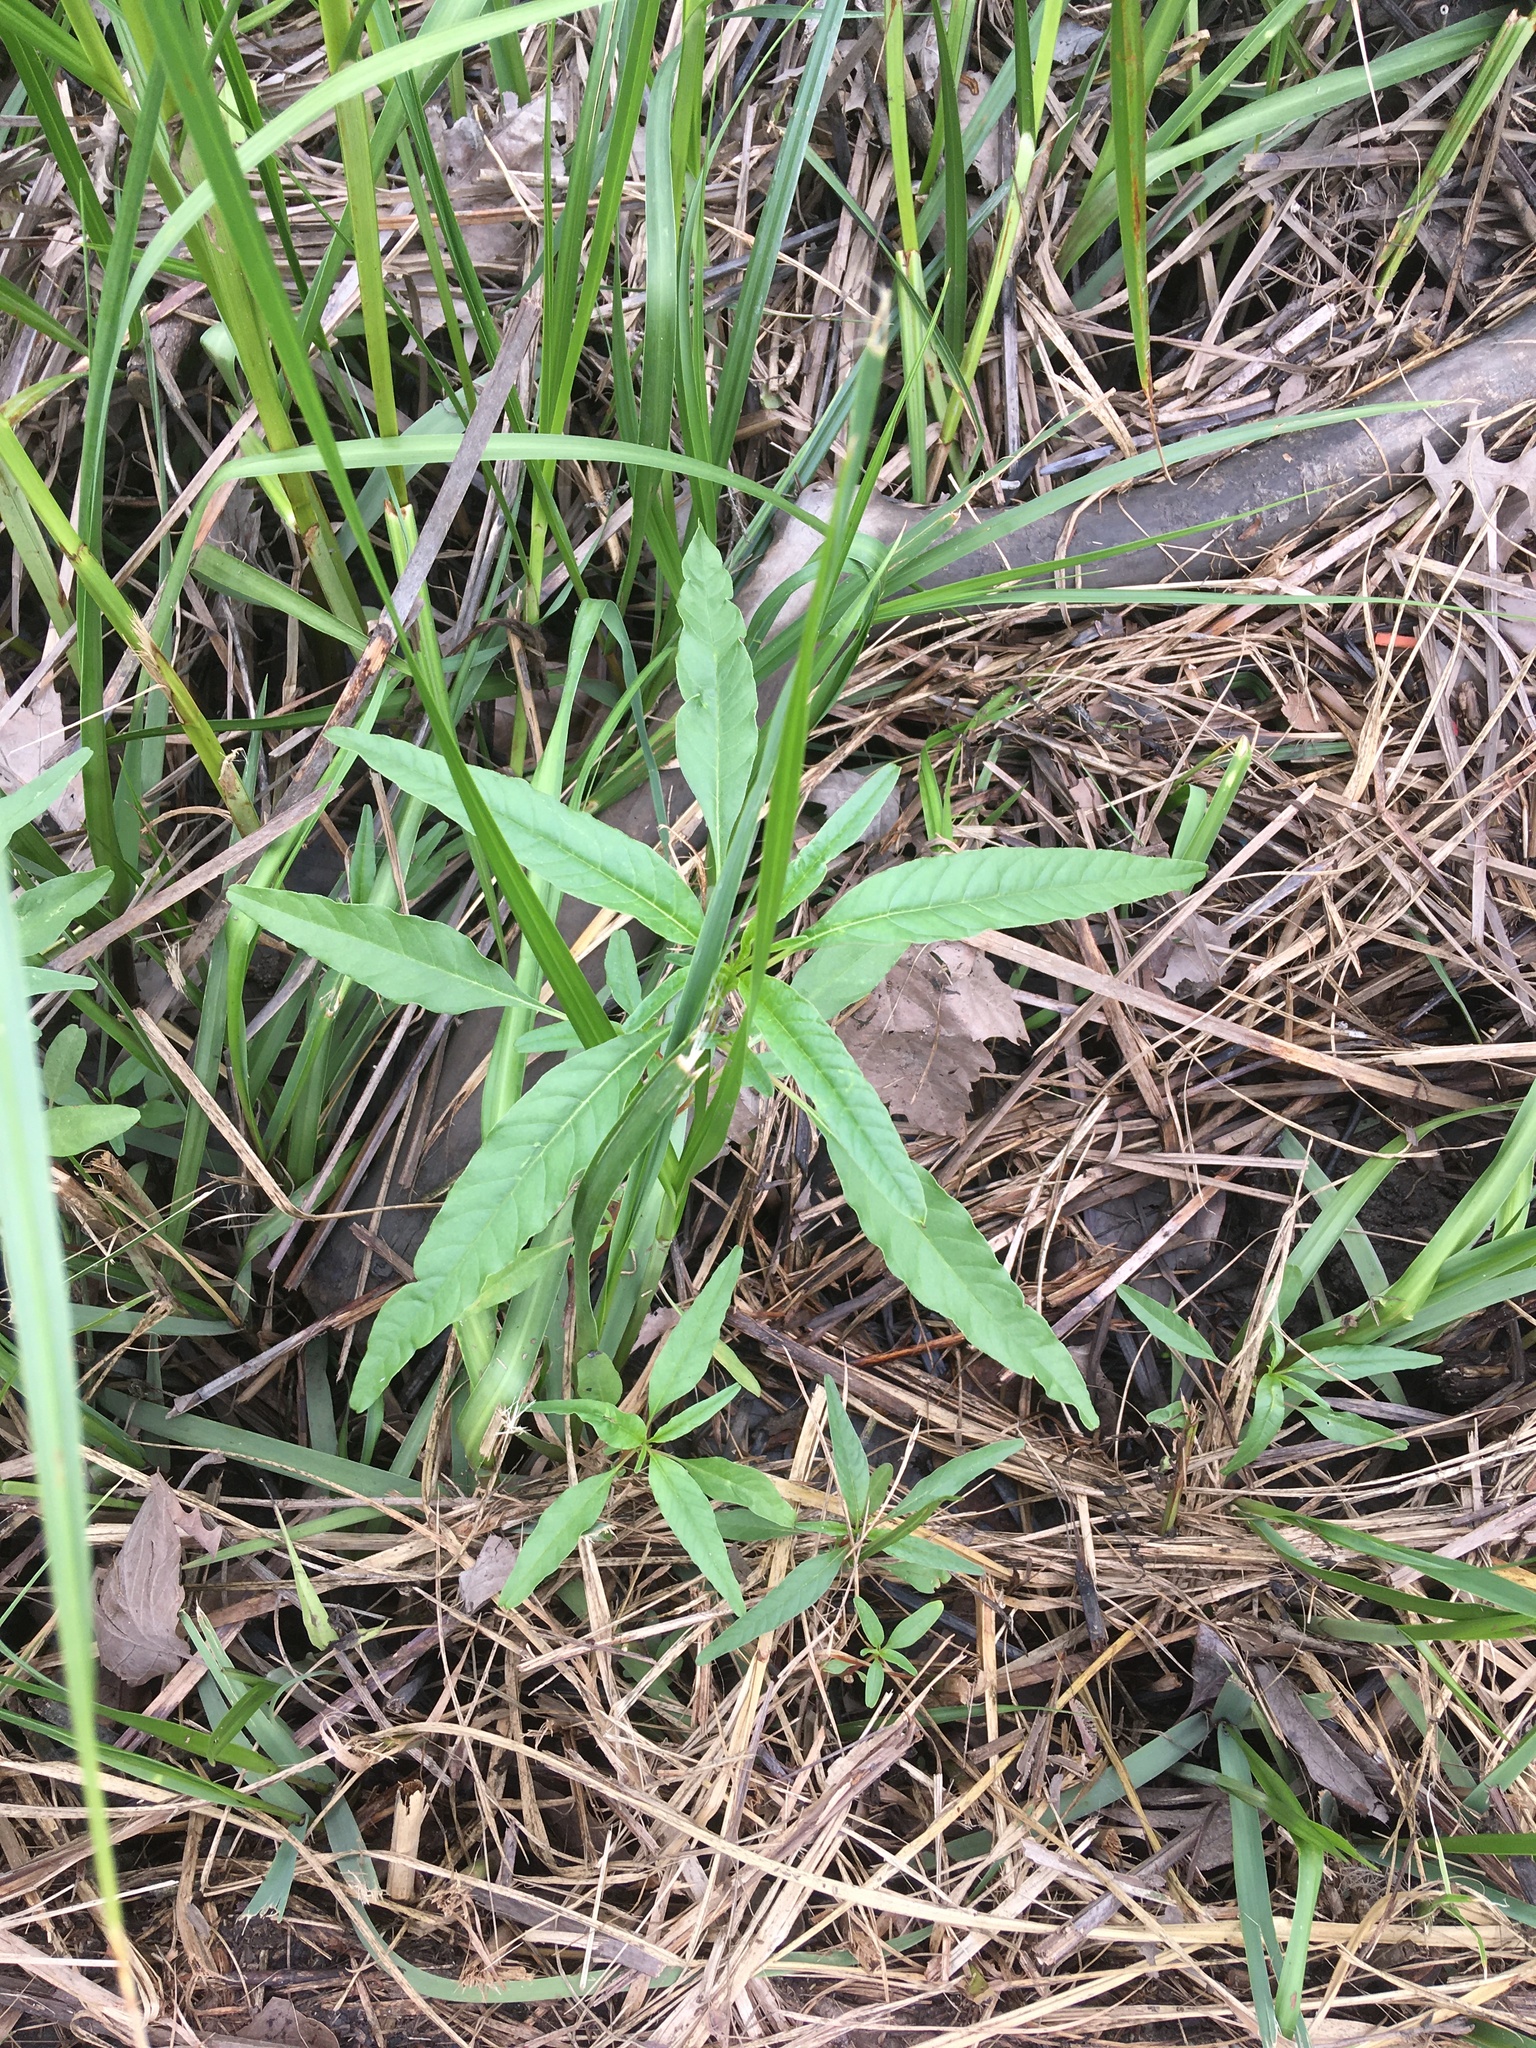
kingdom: Plantae
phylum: Tracheophyta
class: Magnoliopsida
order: Gentianales
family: Apocynaceae
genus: Apocynum
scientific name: Apocynum cannabinum
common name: Hemp dogbane
